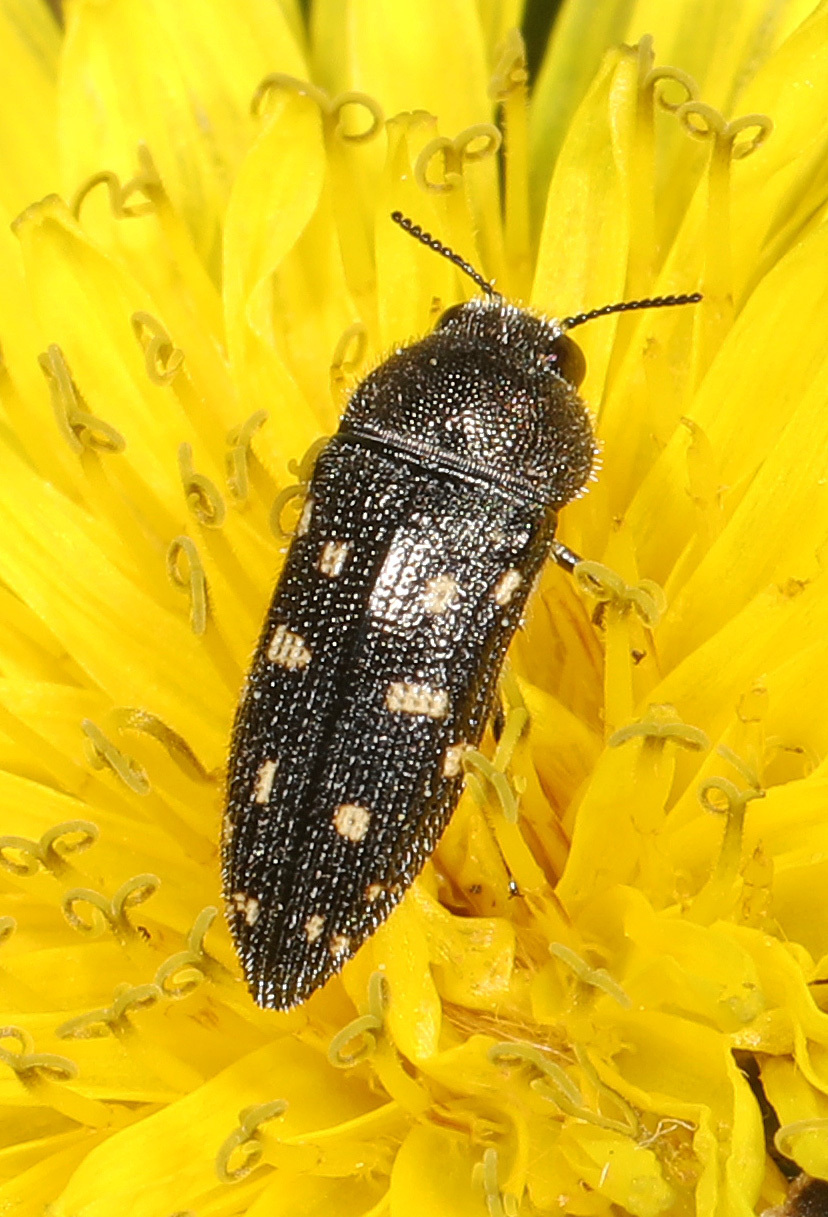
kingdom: Animalia
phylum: Arthropoda
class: Insecta
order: Coleoptera
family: Buprestidae
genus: Acmaeodera
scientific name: Acmaeodera tubulus
